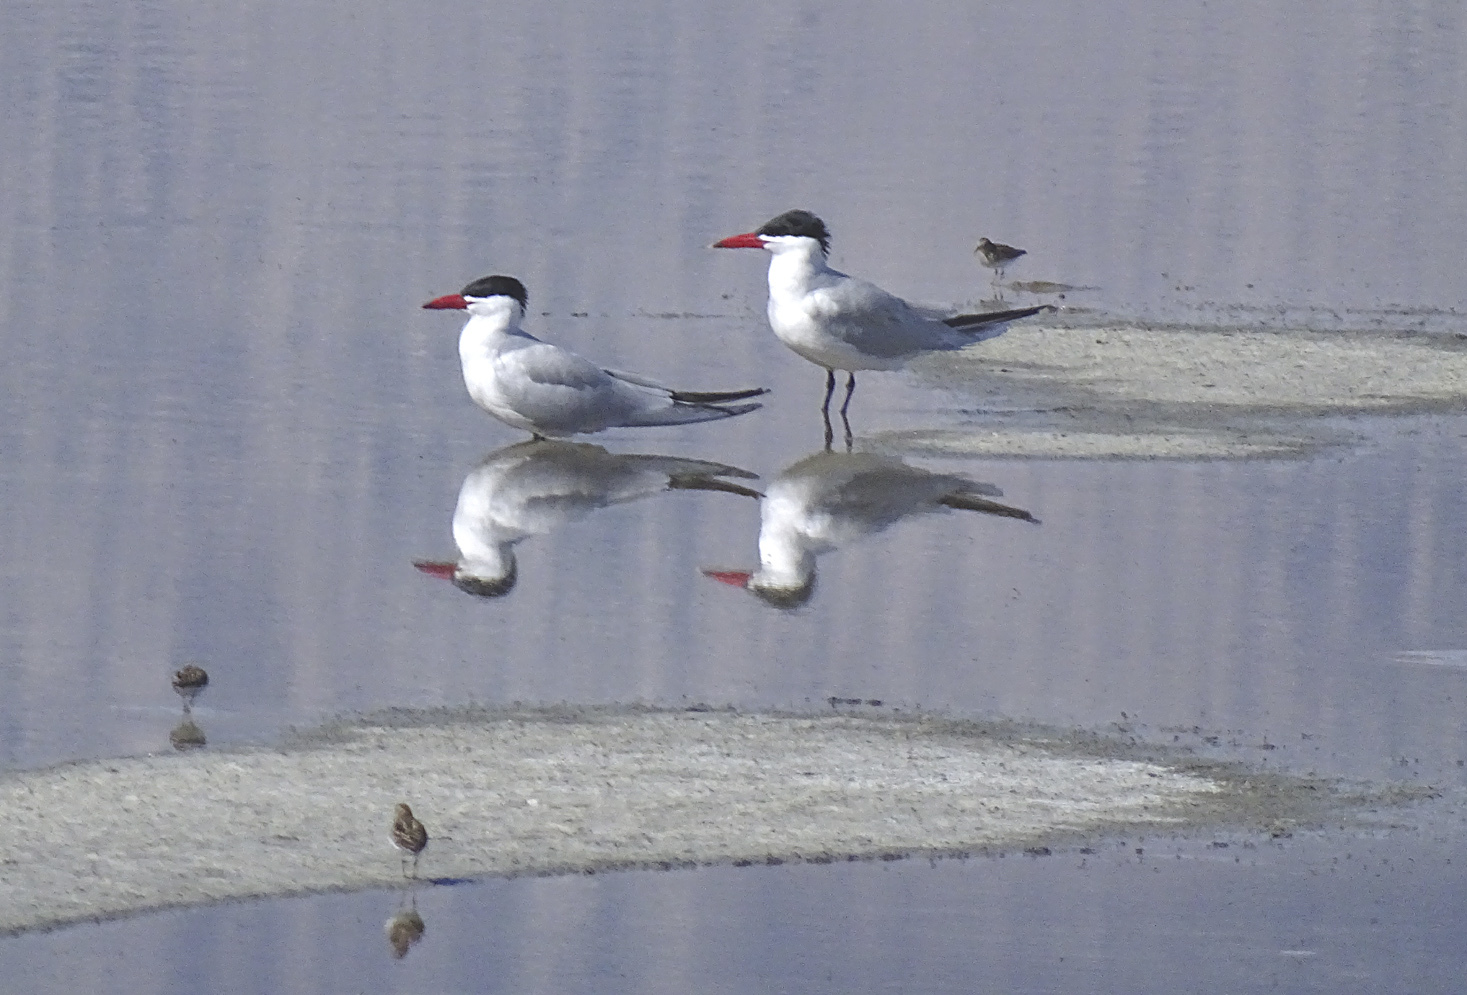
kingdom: Animalia
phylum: Chordata
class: Aves
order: Charadriiformes
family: Laridae
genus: Hydroprogne
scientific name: Hydroprogne caspia
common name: Caspian tern
